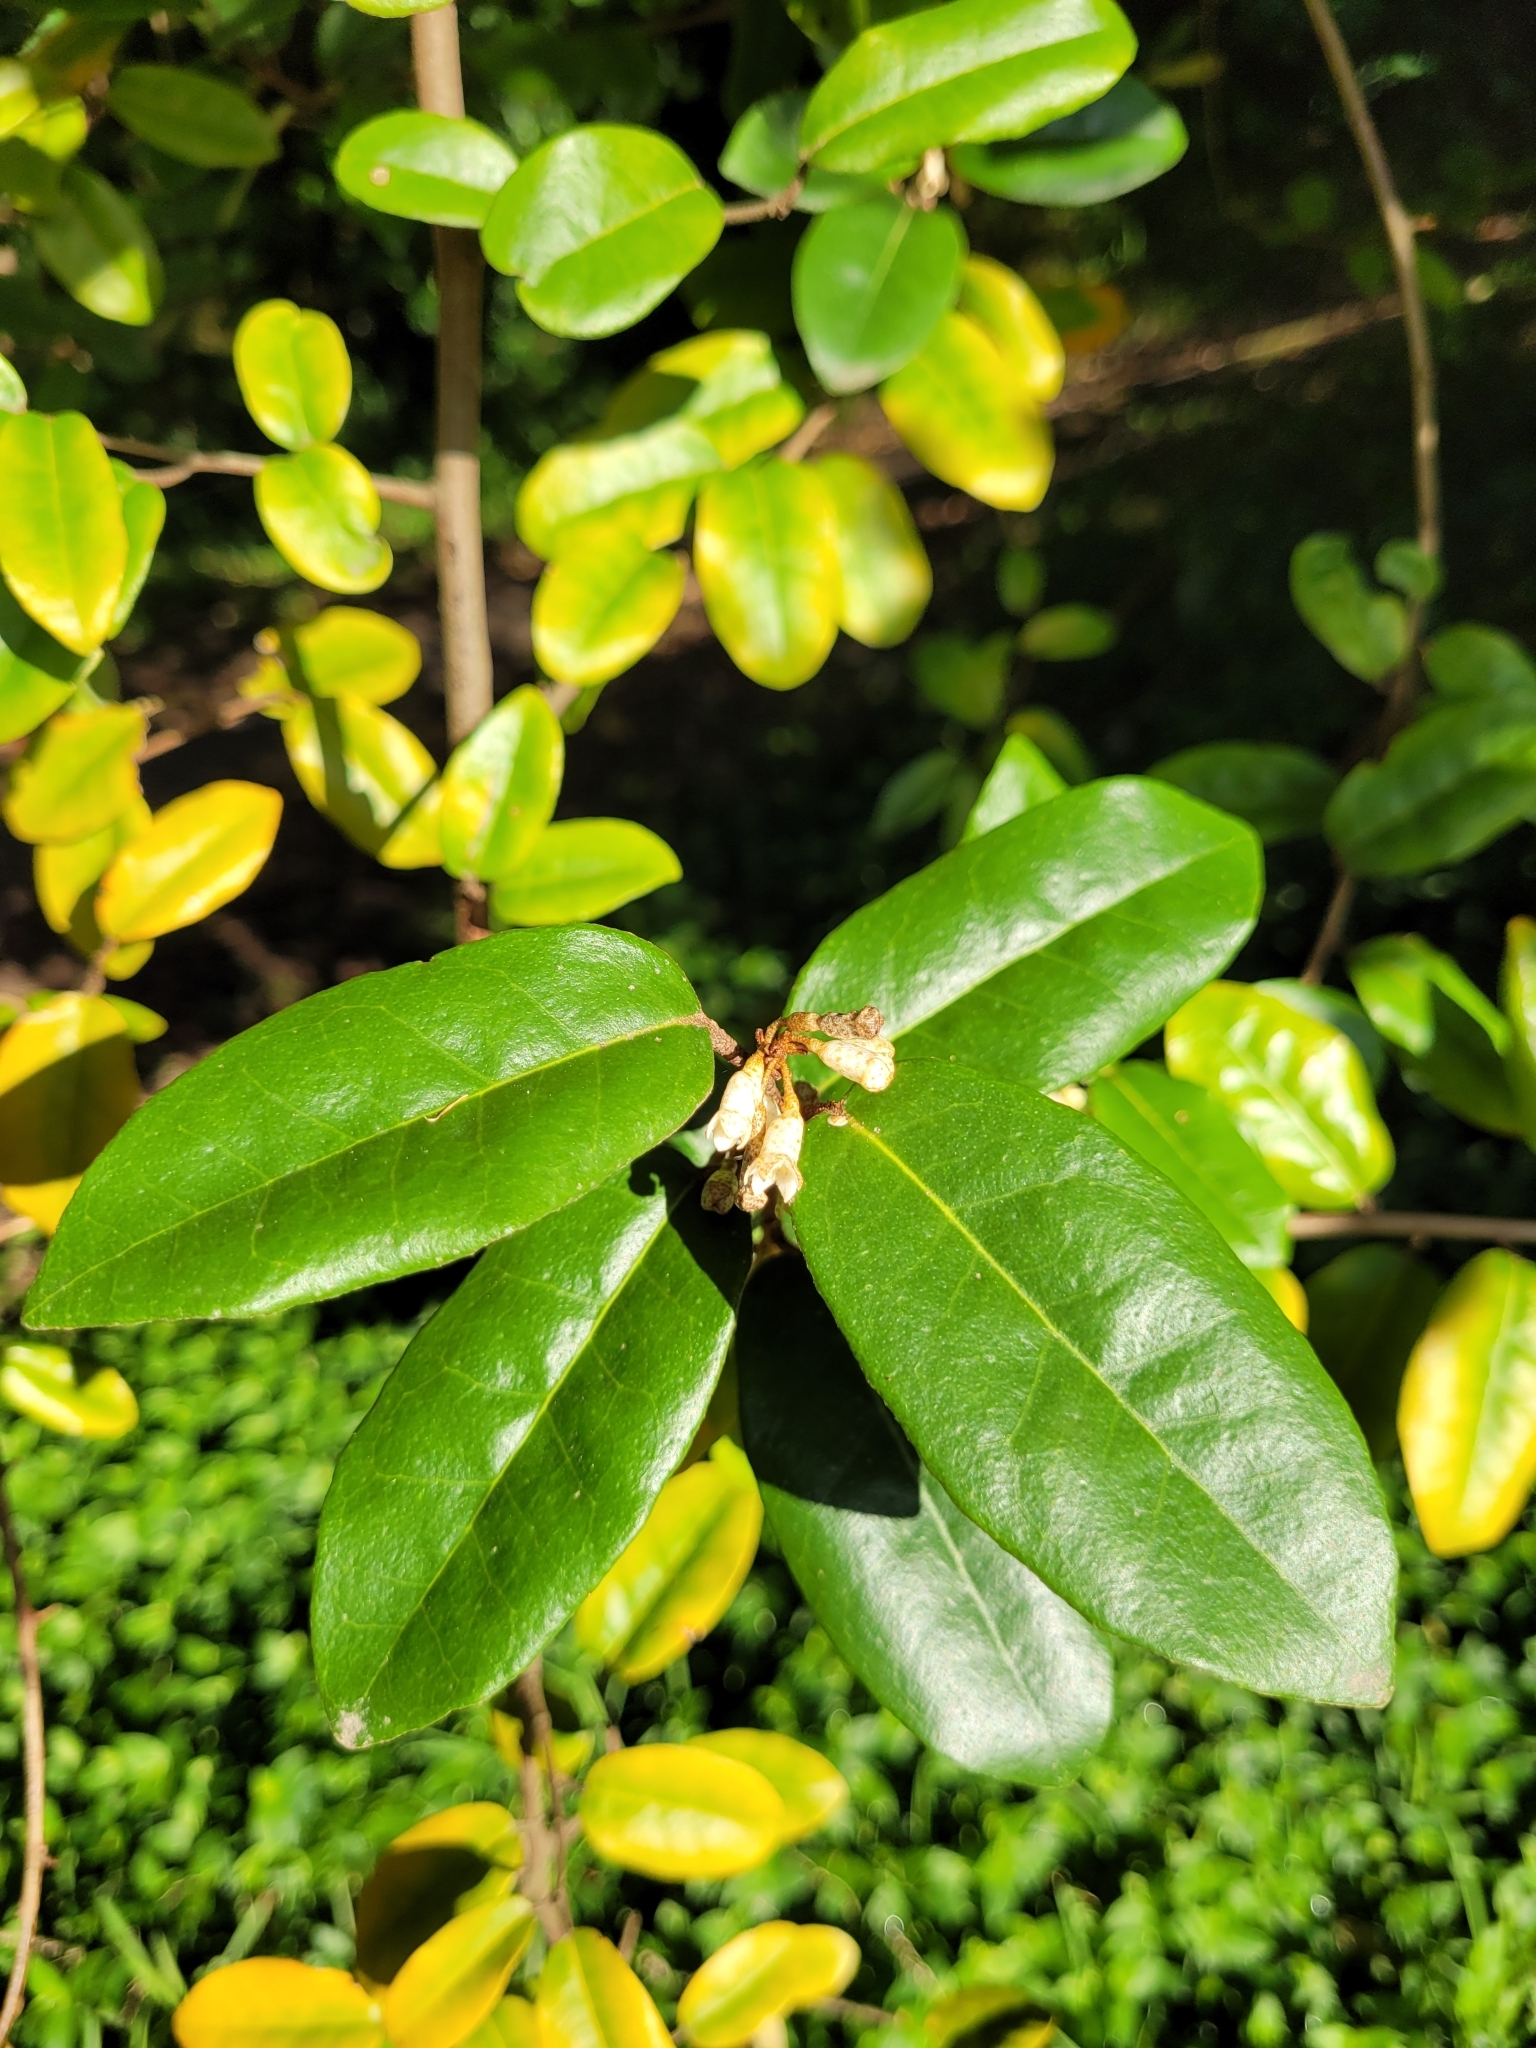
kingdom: Plantae
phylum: Tracheophyta
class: Magnoliopsida
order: Rosales
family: Elaeagnaceae
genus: Elaeagnus
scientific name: Elaeagnus reflexa
